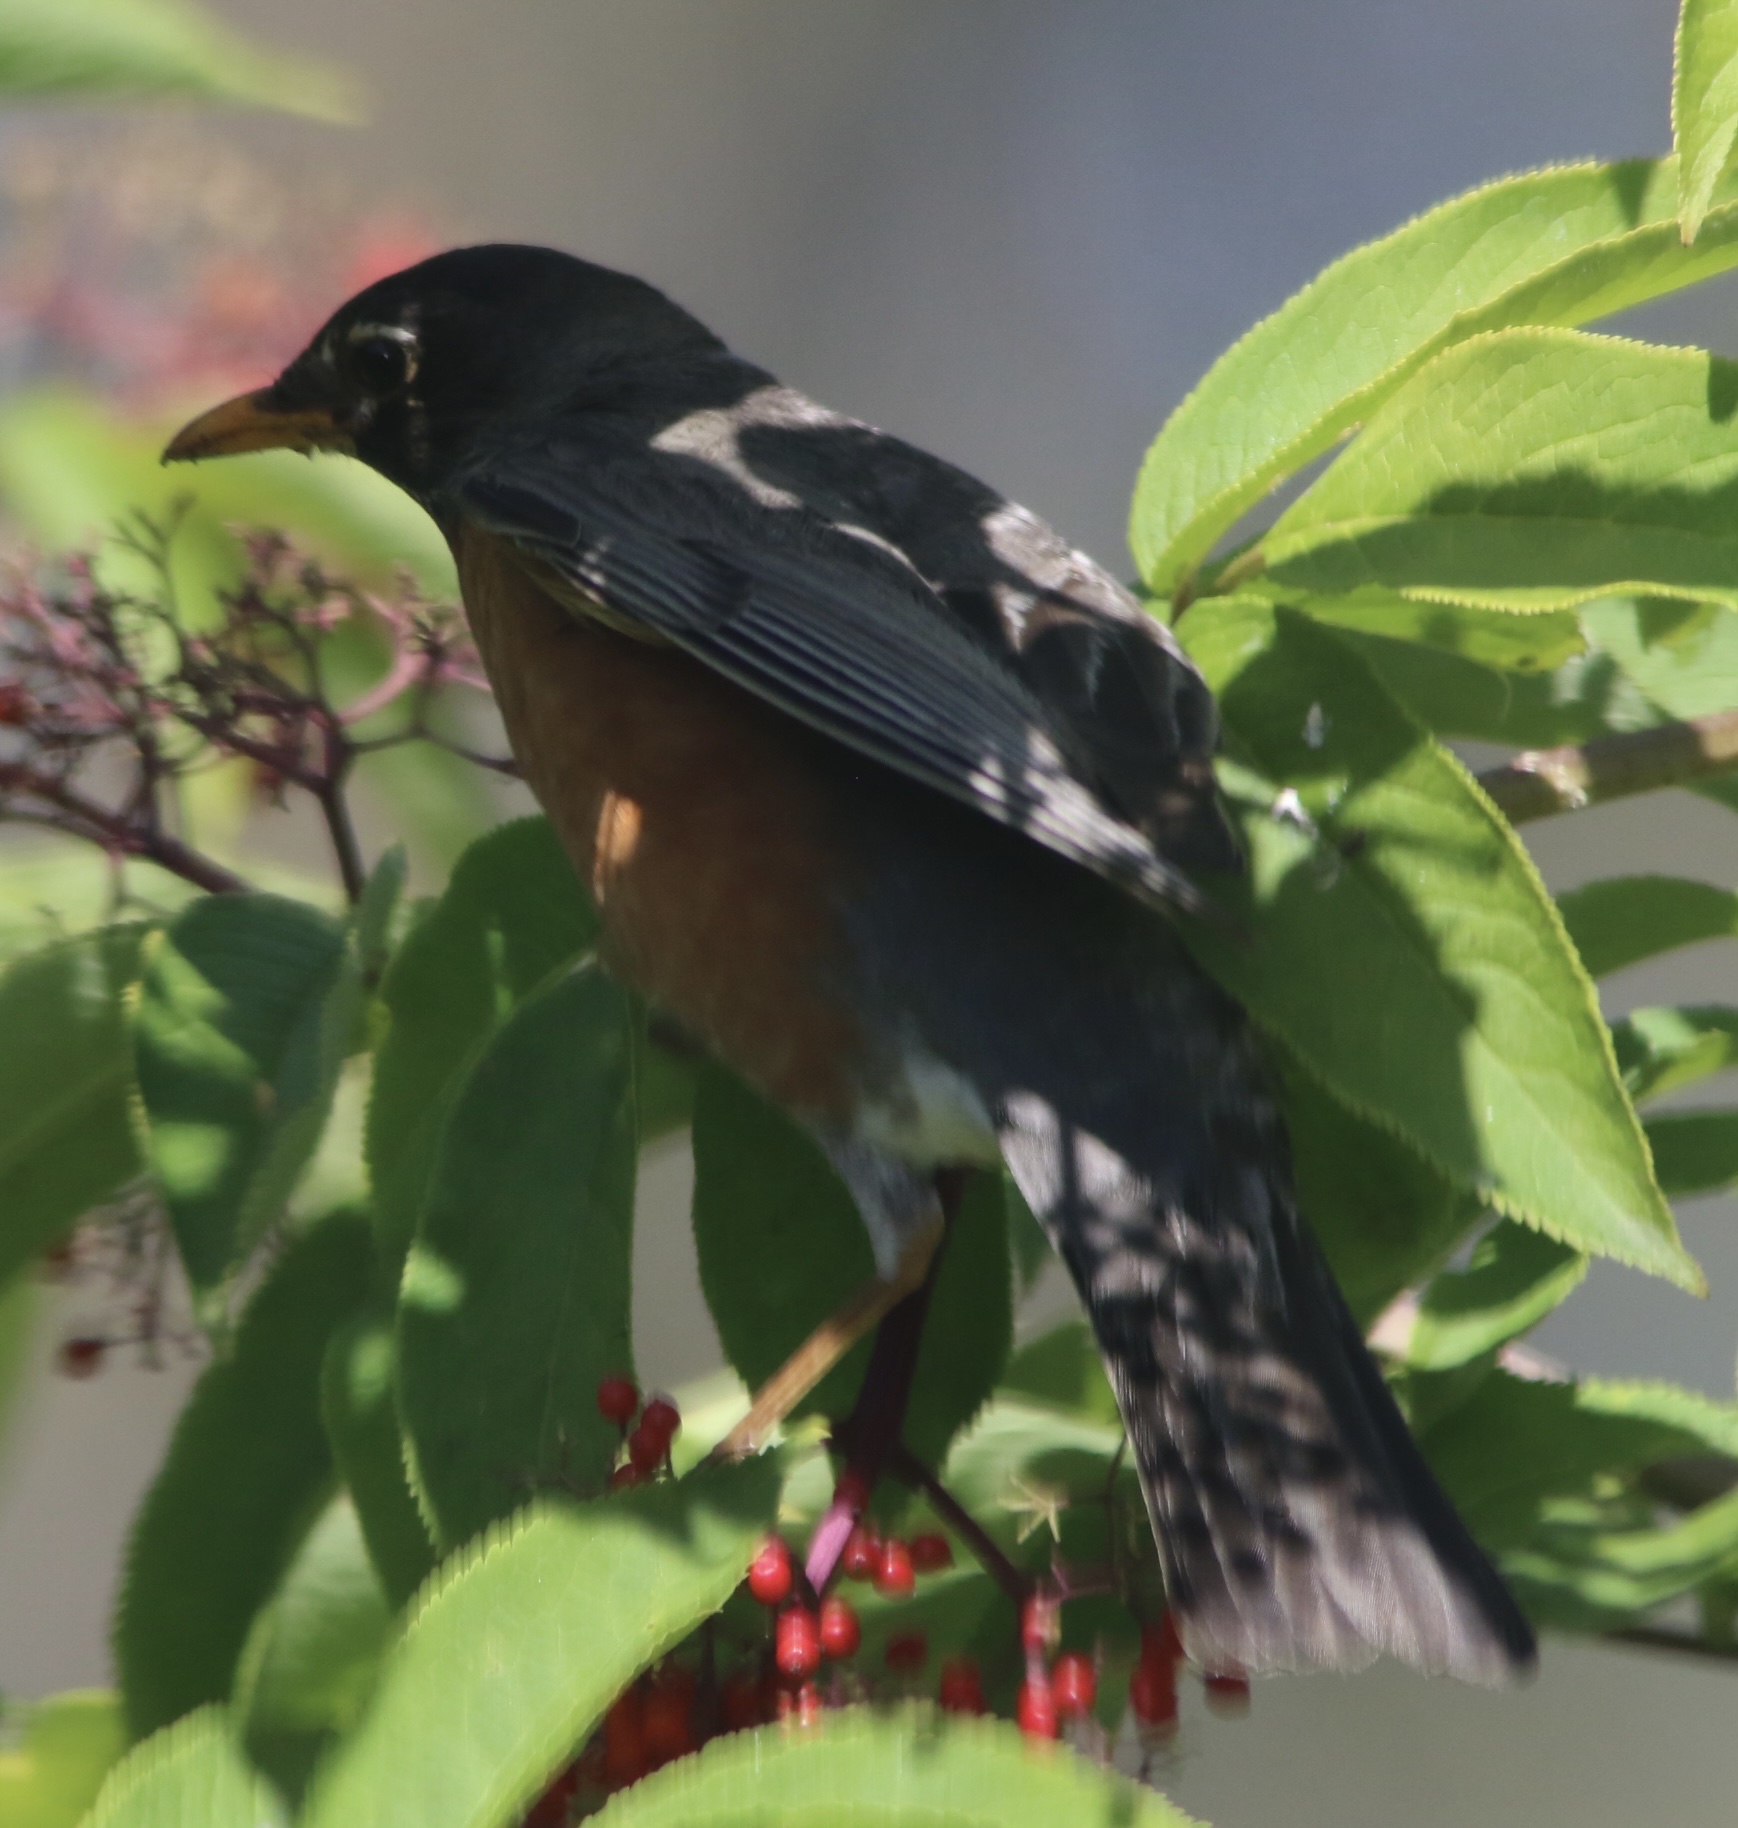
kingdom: Animalia
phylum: Chordata
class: Aves
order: Passeriformes
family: Turdidae
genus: Turdus
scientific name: Turdus migratorius
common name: American robin
